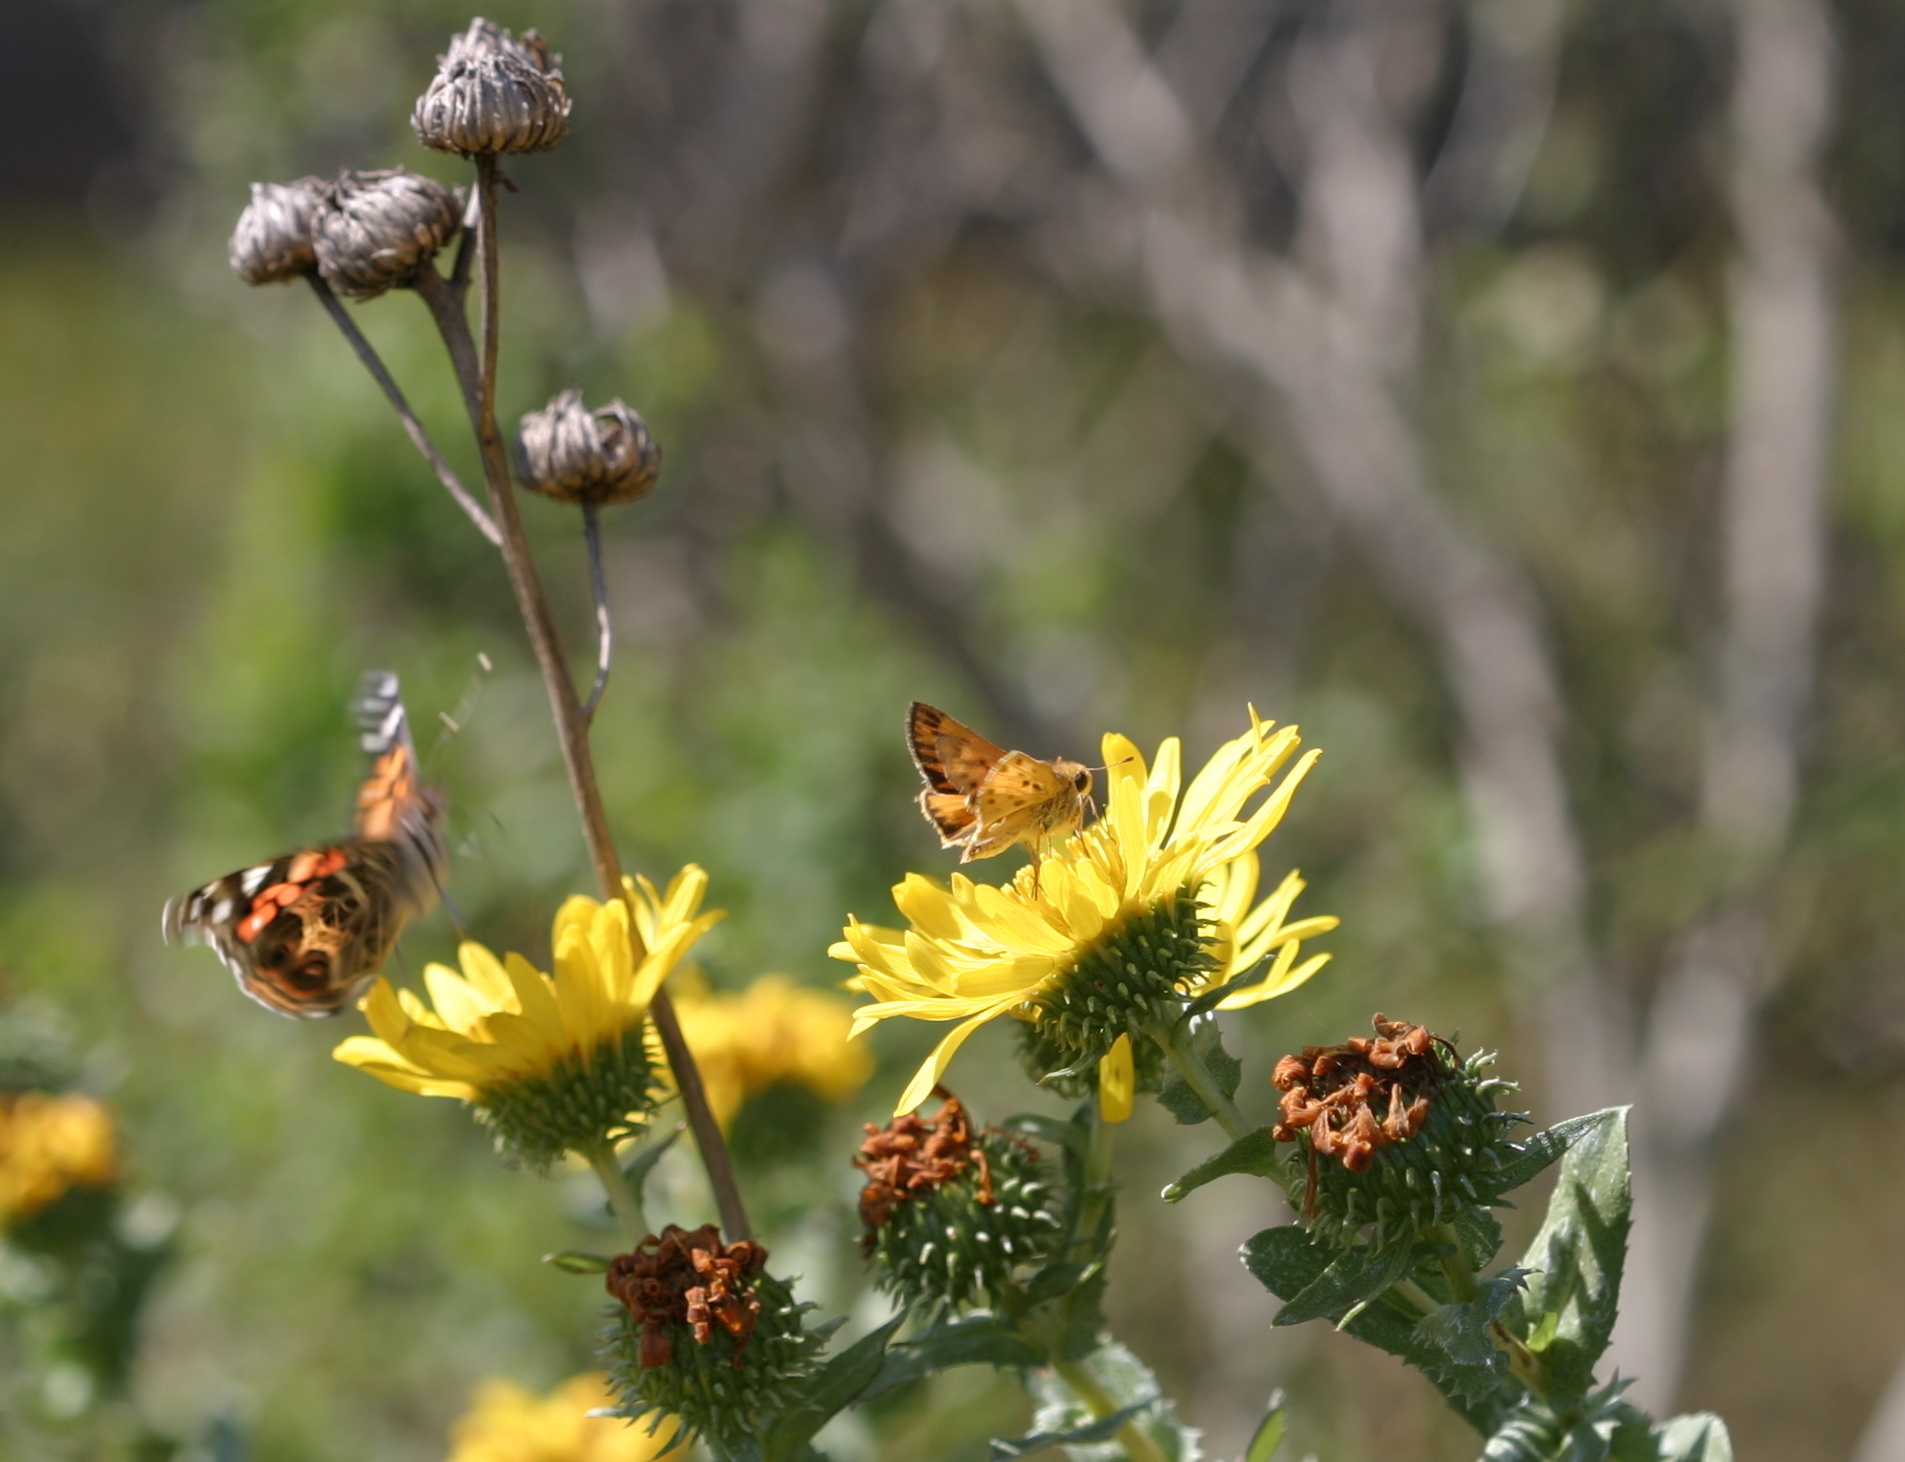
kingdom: Animalia
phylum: Arthropoda
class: Insecta
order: Lepidoptera
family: Hesperiidae
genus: Hylephila
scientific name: Hylephila phyleus
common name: Fiery skipper
